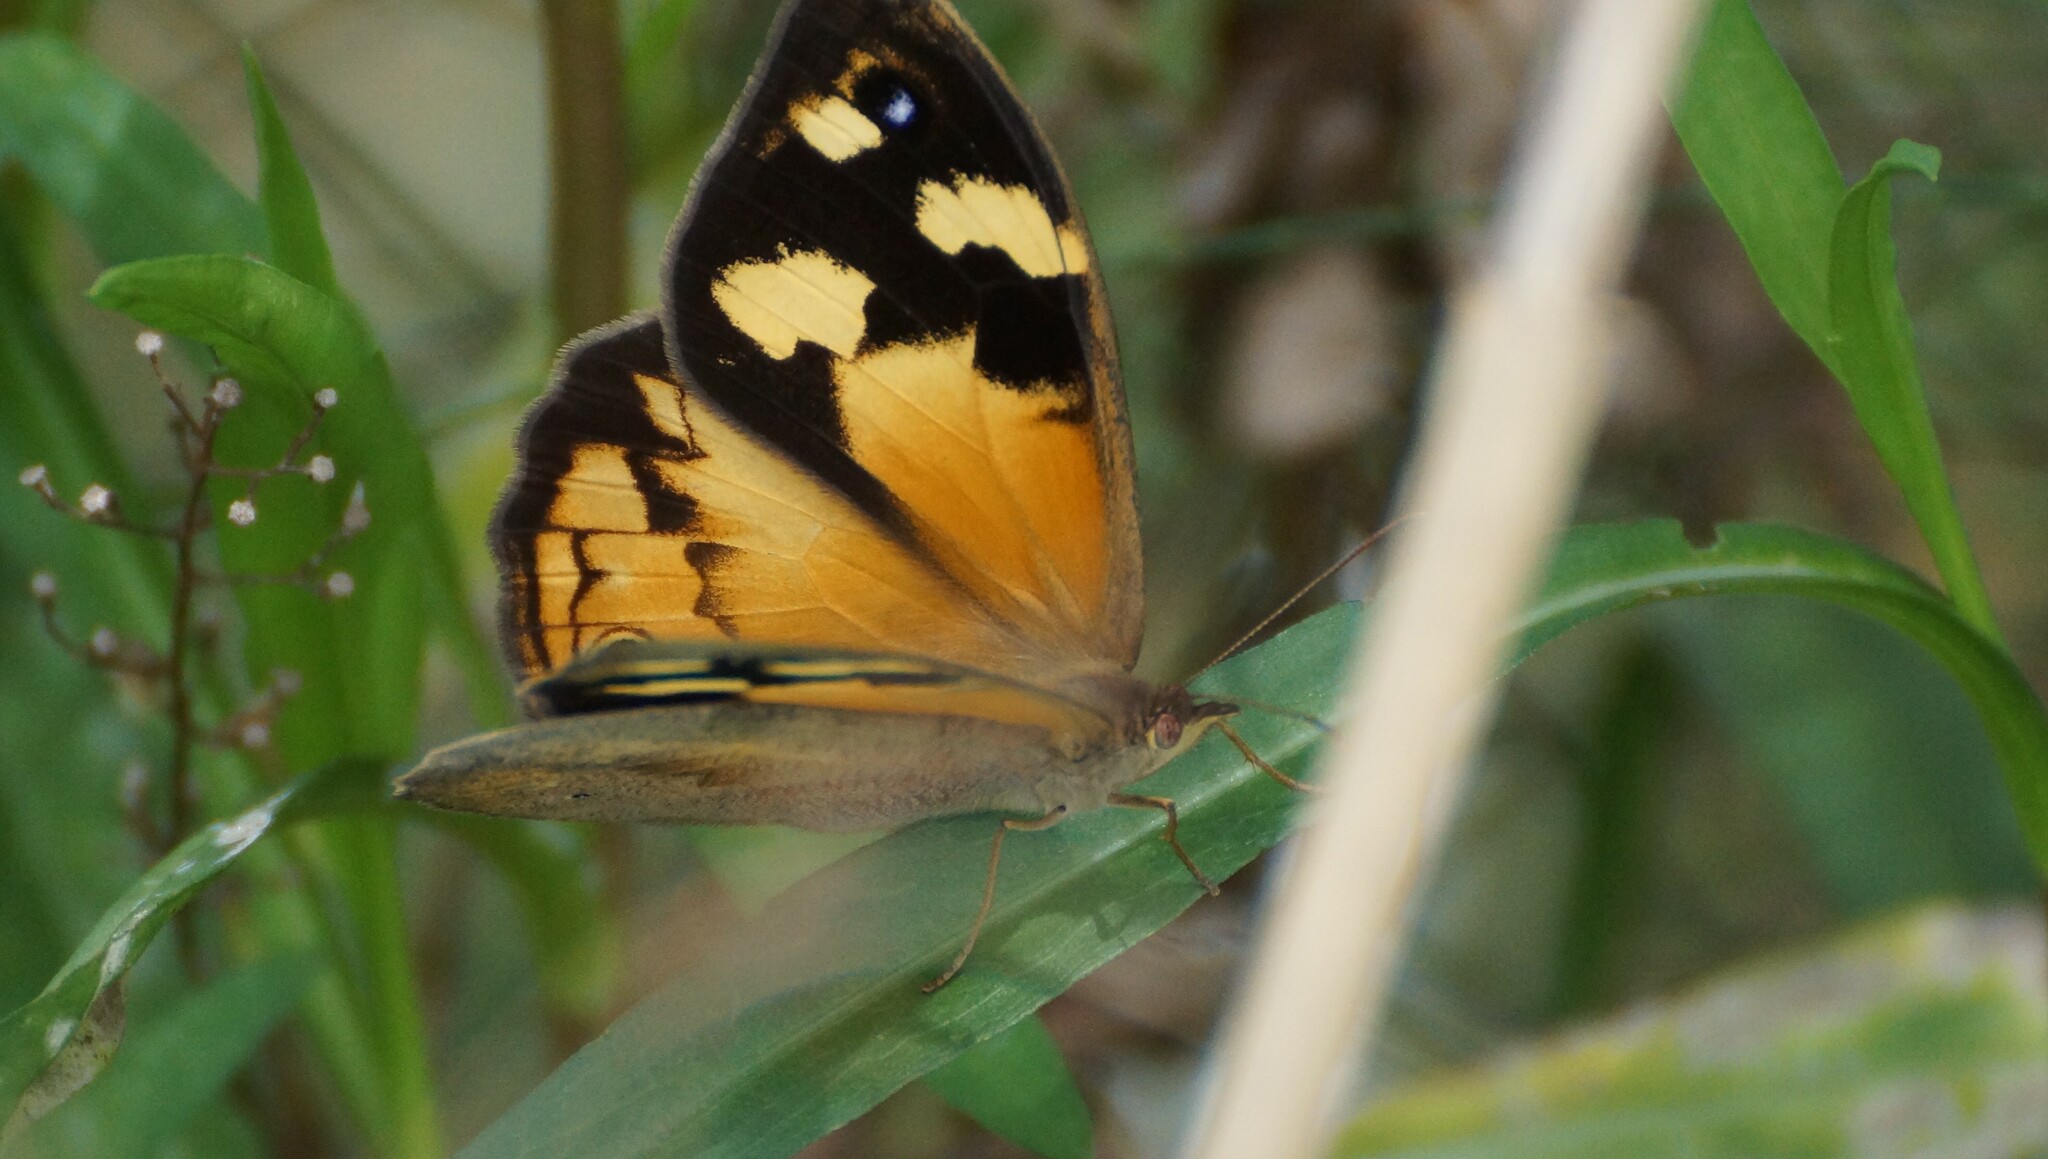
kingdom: Animalia
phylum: Arthropoda
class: Insecta
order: Lepidoptera
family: Nymphalidae
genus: Heteronympha
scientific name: Heteronympha merope
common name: Common brown
